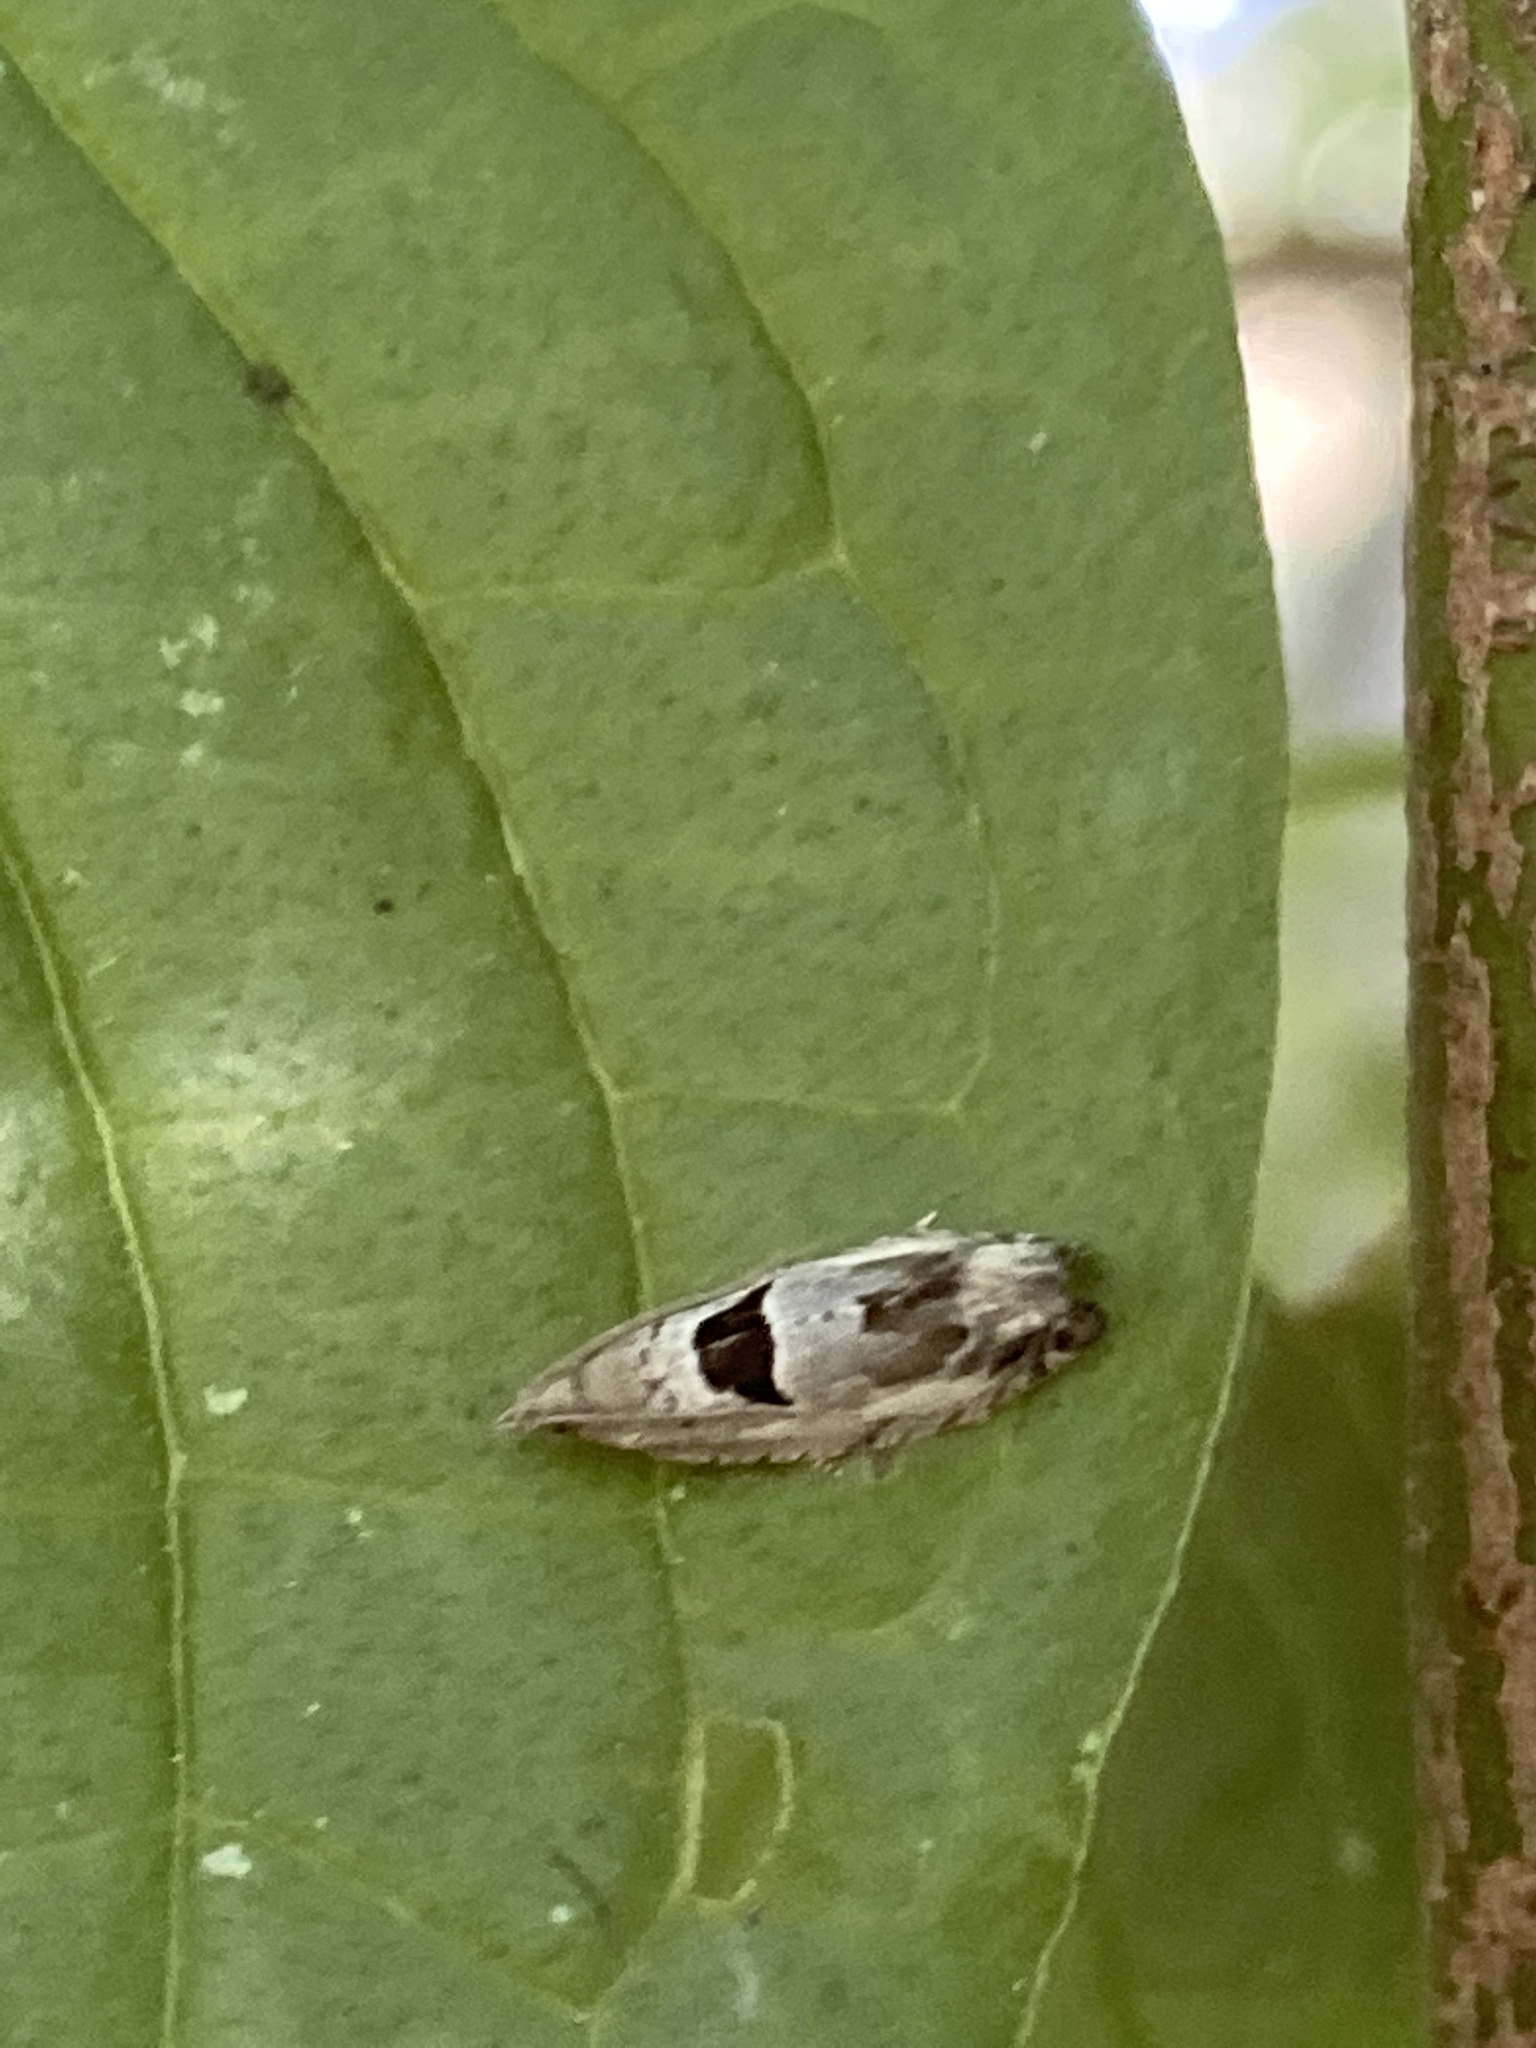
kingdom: Animalia
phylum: Arthropoda
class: Insecta
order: Lepidoptera
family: Tortricidae
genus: Epinotia
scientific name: Epinotia ramella
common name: Small birch bell
